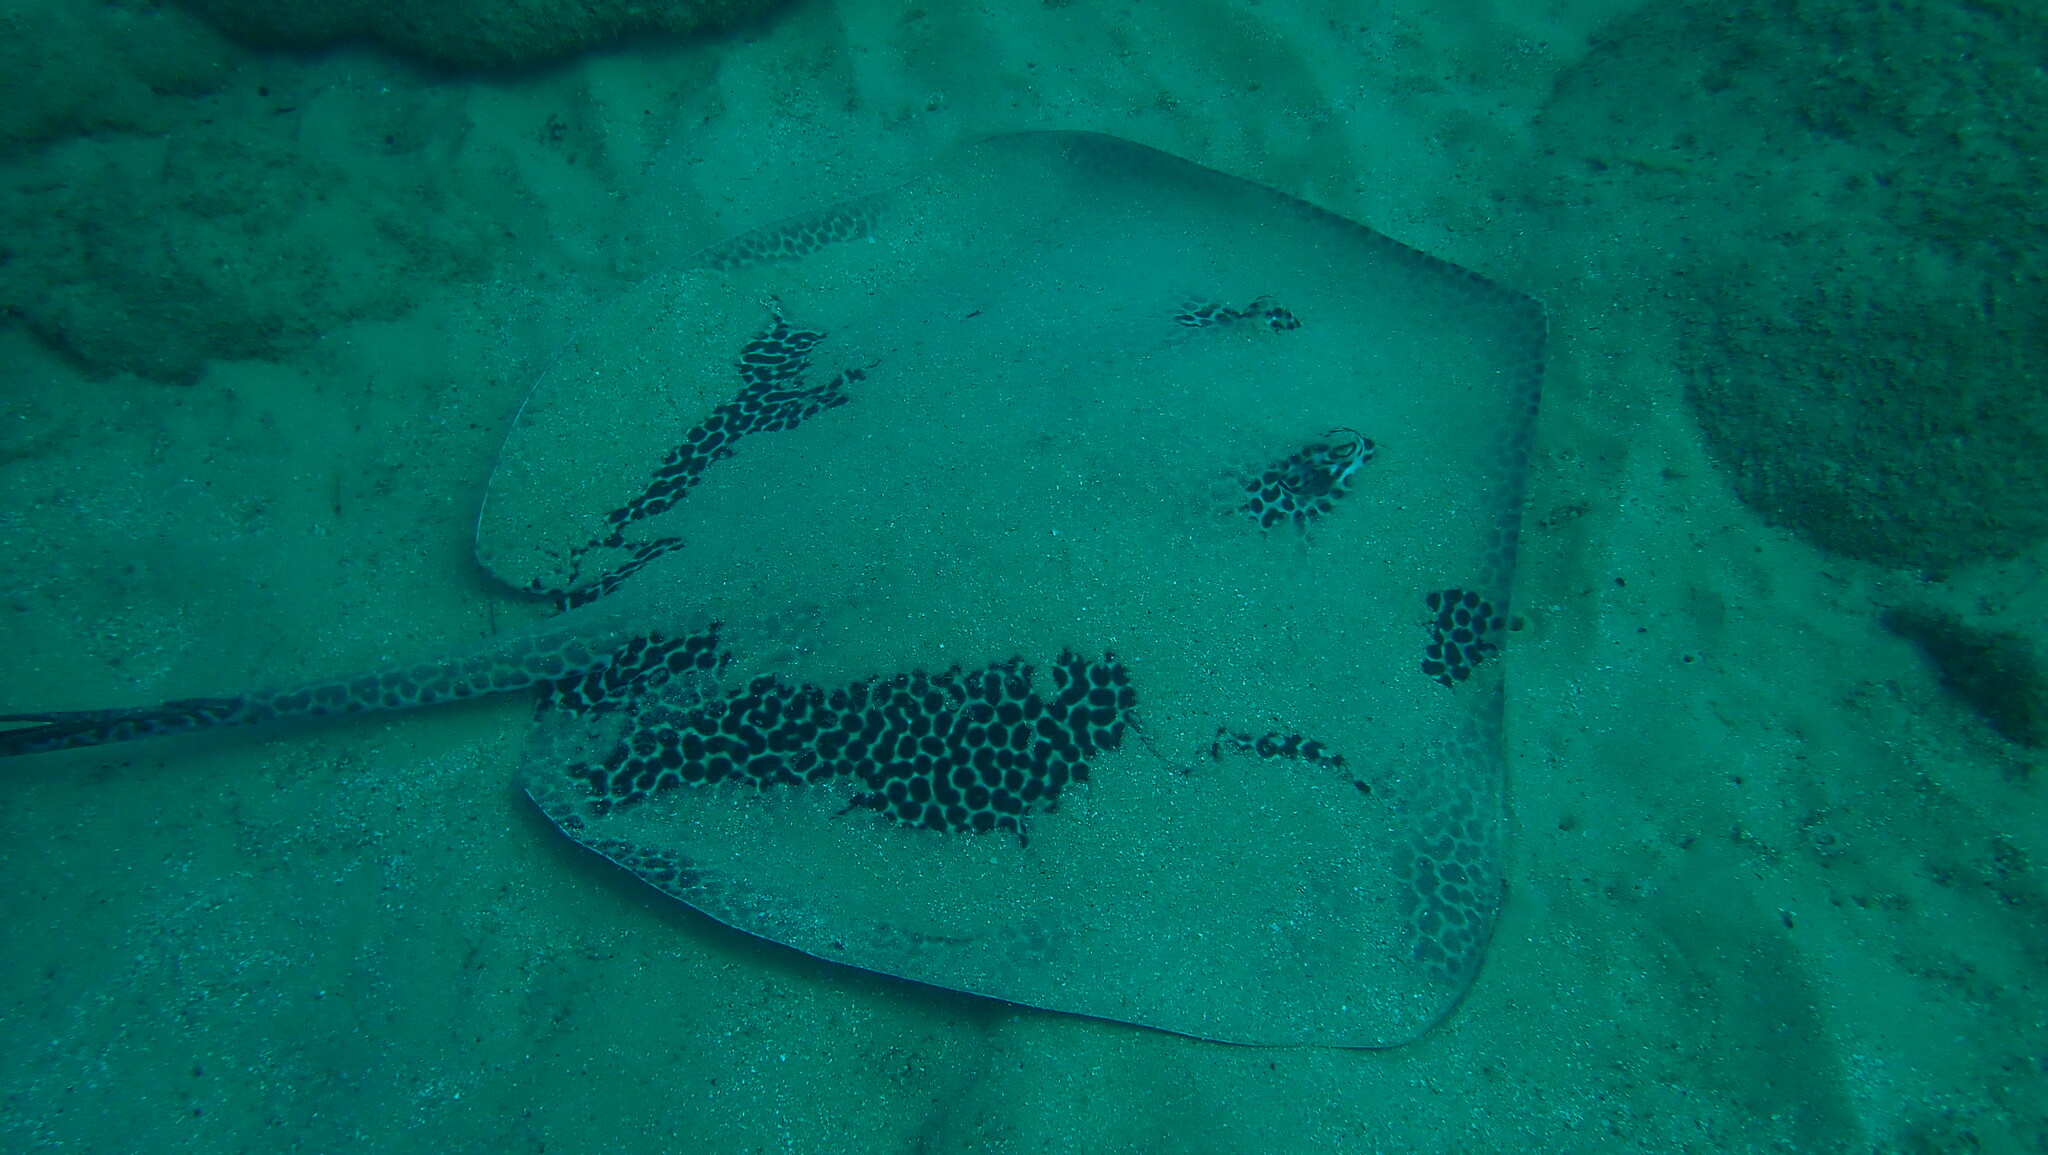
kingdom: Animalia
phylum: Chordata
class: Elasmobranchii
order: Myliobatiformes
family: Dasyatidae
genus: Himantura
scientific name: Himantura uarnak
